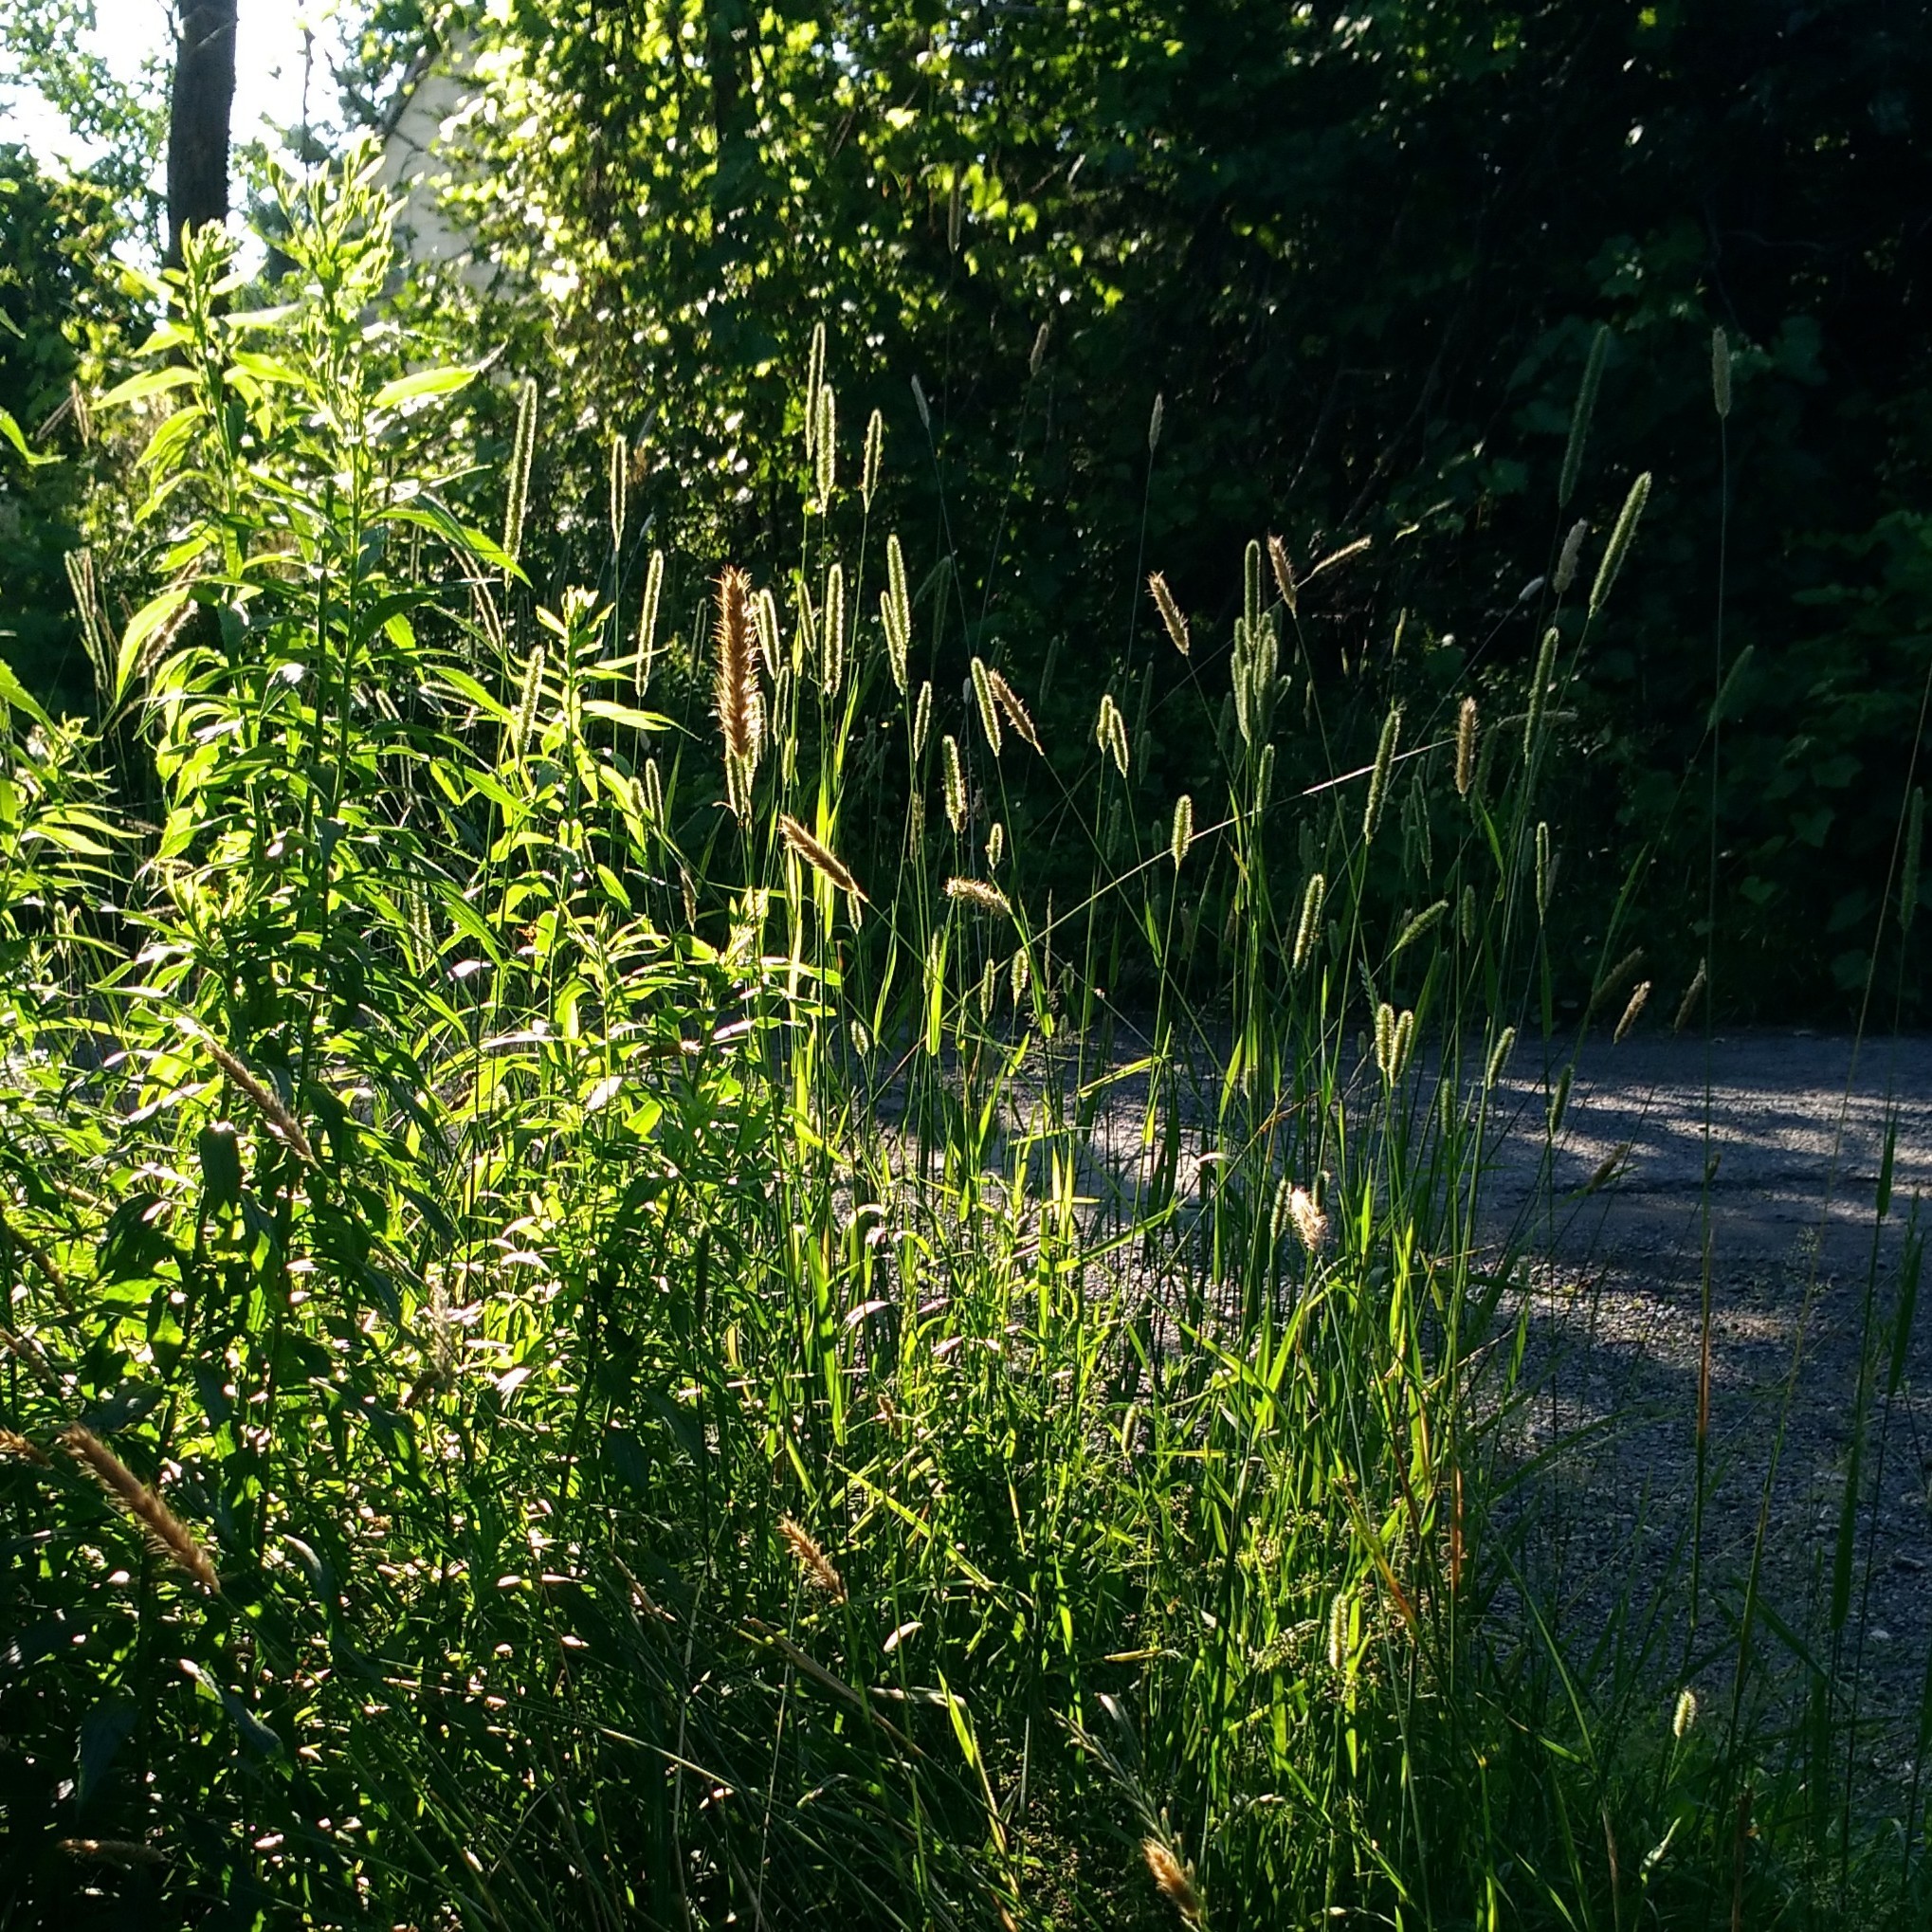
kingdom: Plantae
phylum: Tracheophyta
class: Liliopsida
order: Poales
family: Poaceae
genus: Alopecurus
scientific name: Alopecurus pratensis
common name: Meadow foxtail
